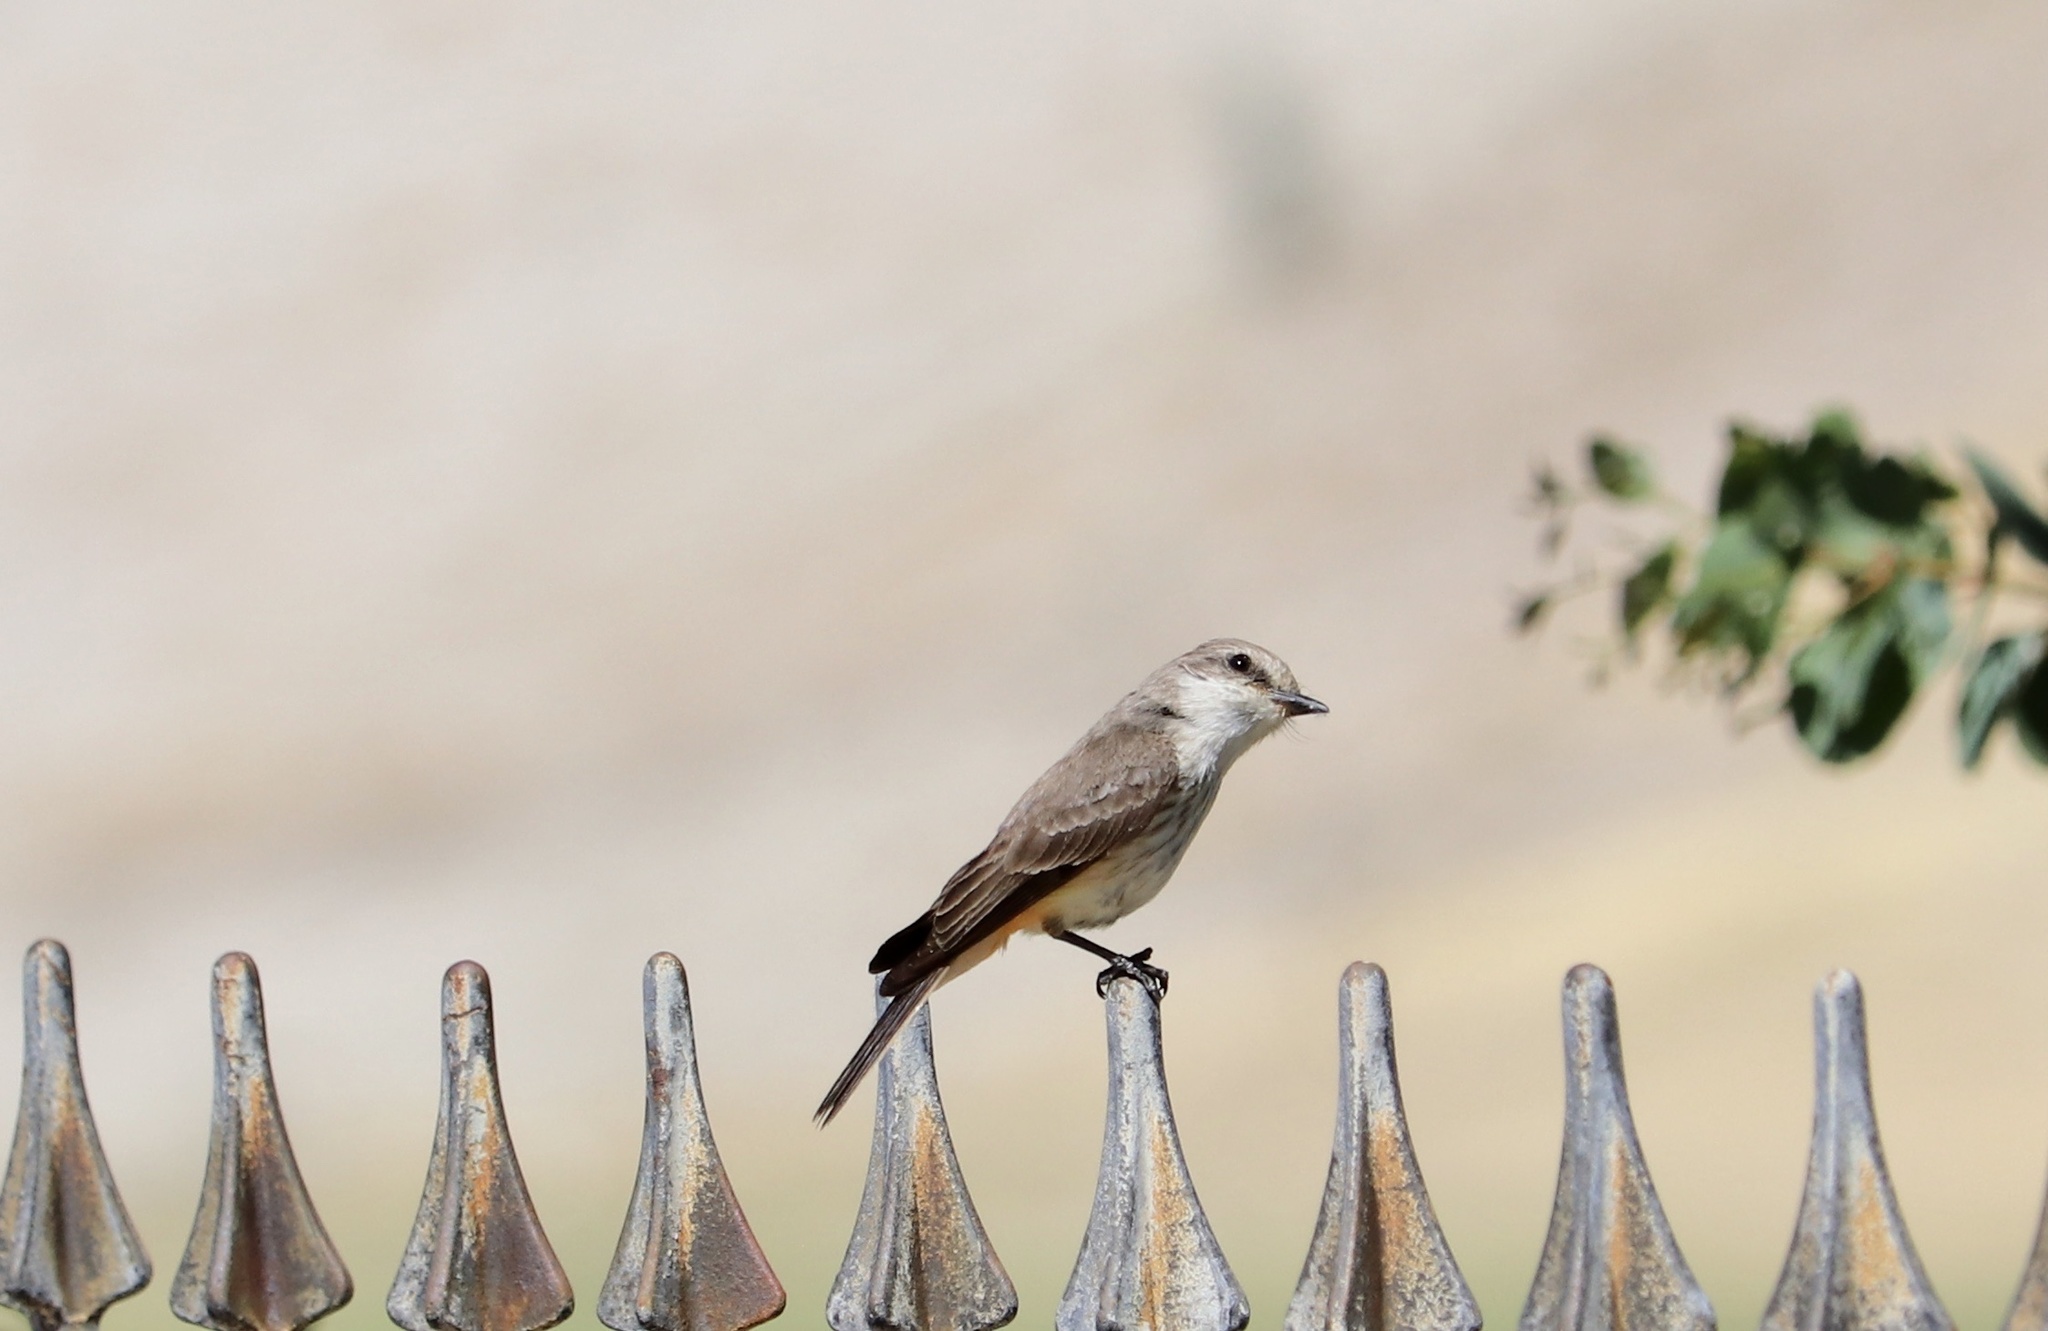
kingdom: Animalia
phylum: Chordata
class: Aves
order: Passeriformes
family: Tyrannidae
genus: Pyrocephalus
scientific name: Pyrocephalus rubinus
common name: Vermilion flycatcher
